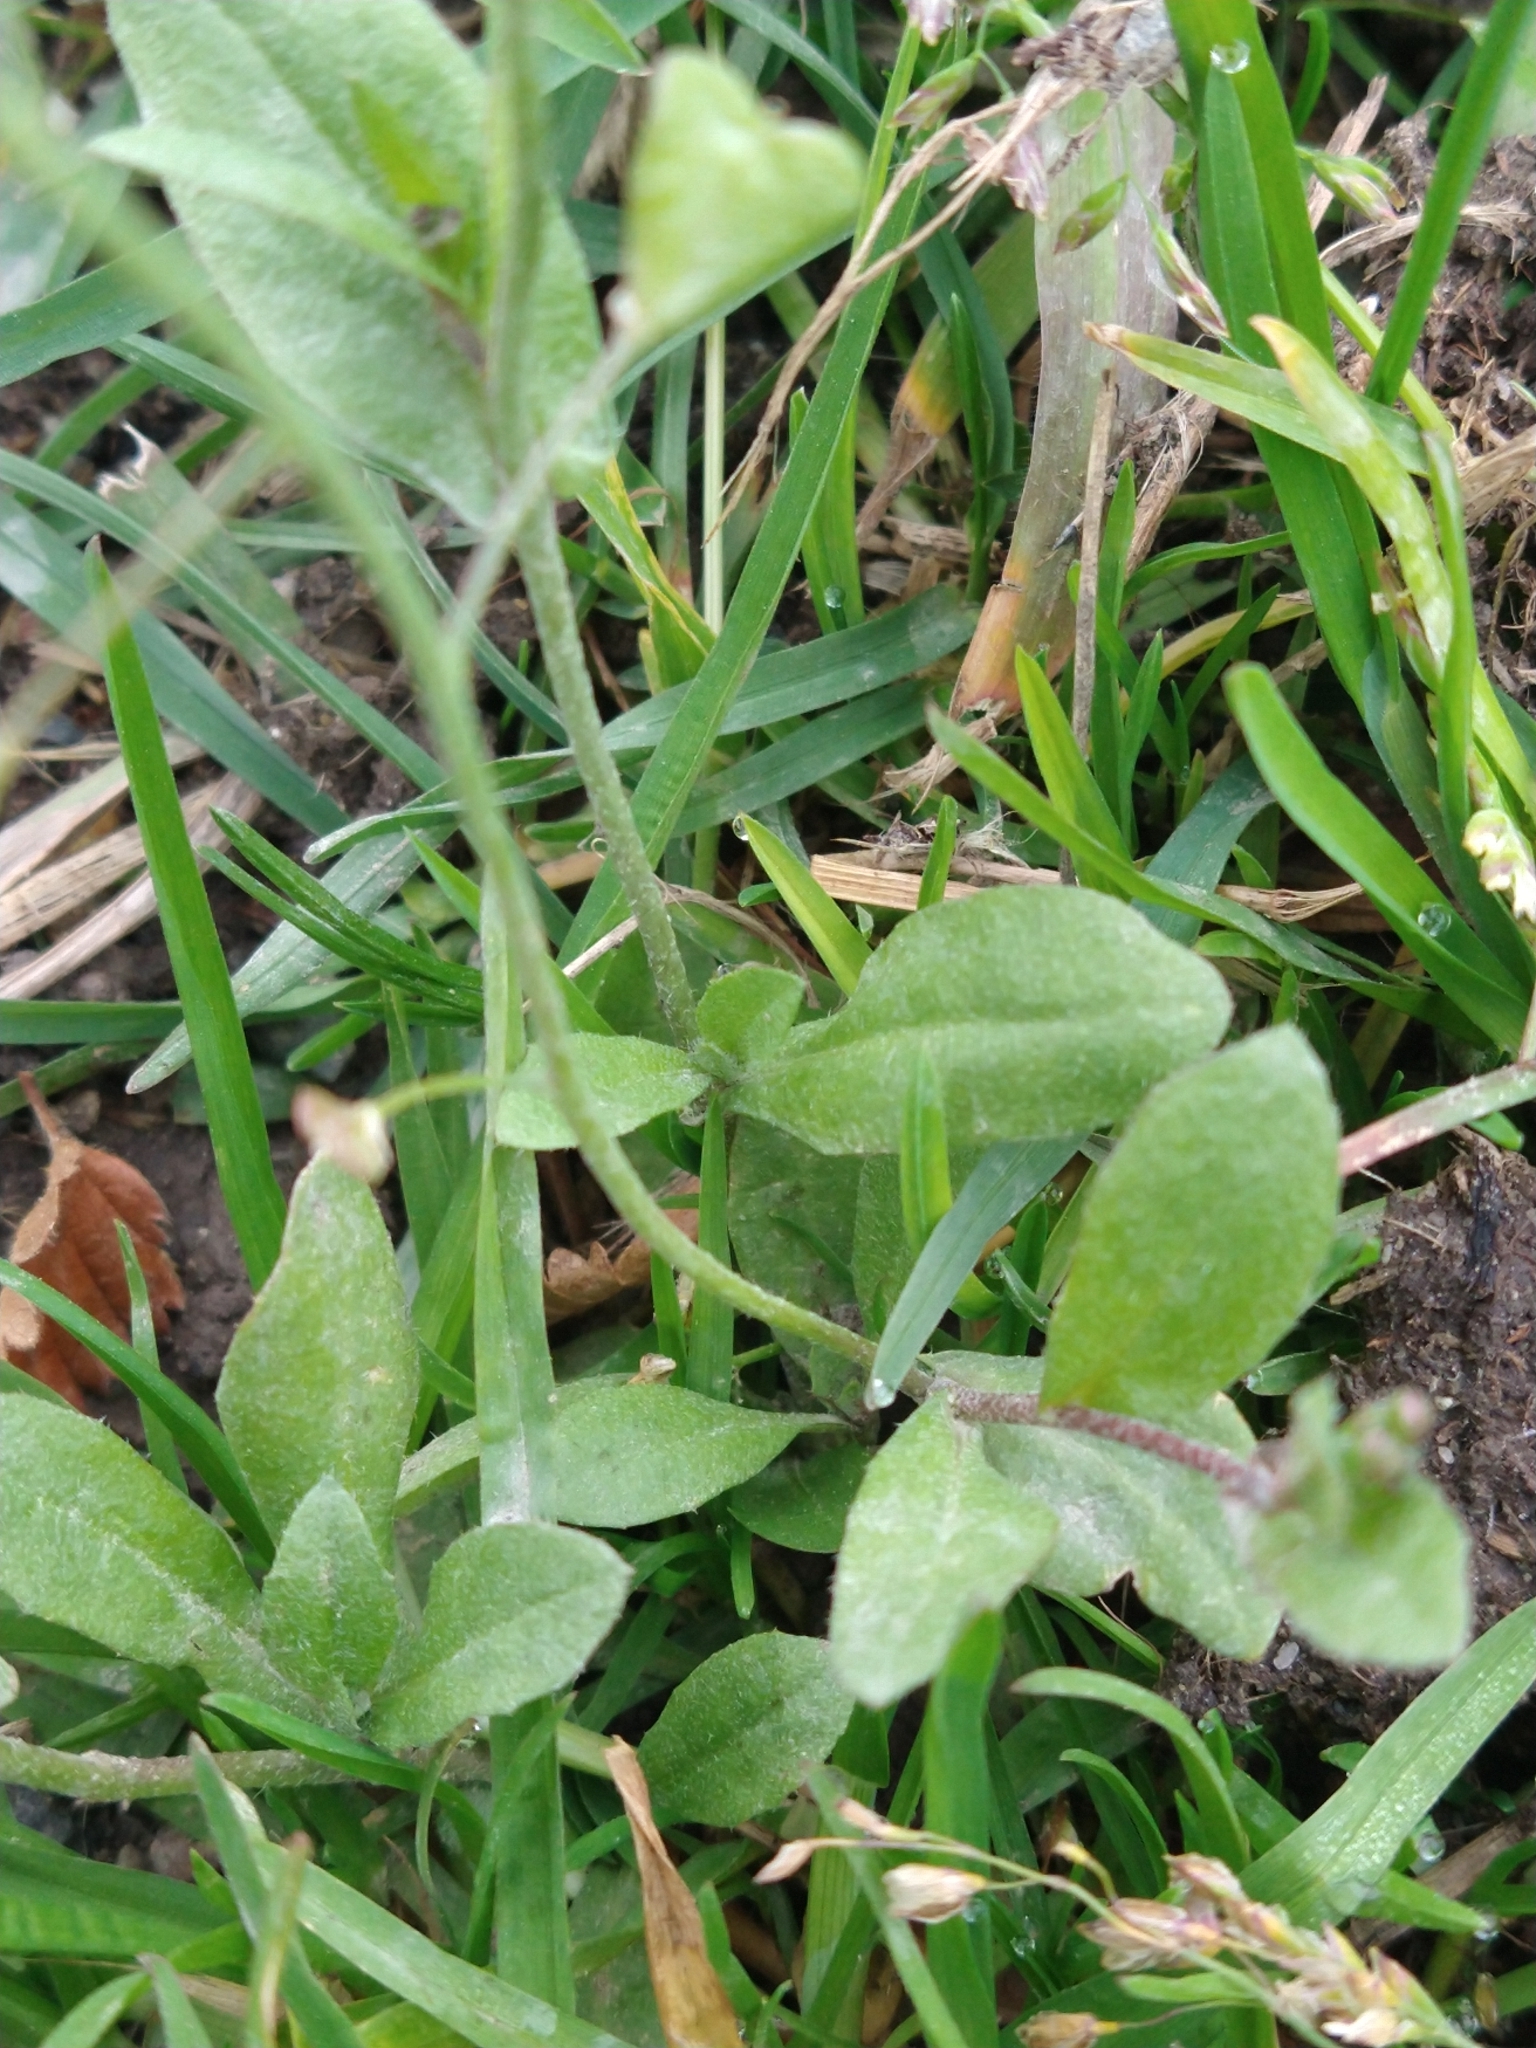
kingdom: Plantae
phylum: Tracheophyta
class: Magnoliopsida
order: Brassicales
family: Brassicaceae
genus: Capsella
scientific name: Capsella bursa-pastoris
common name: Shepherd's purse
